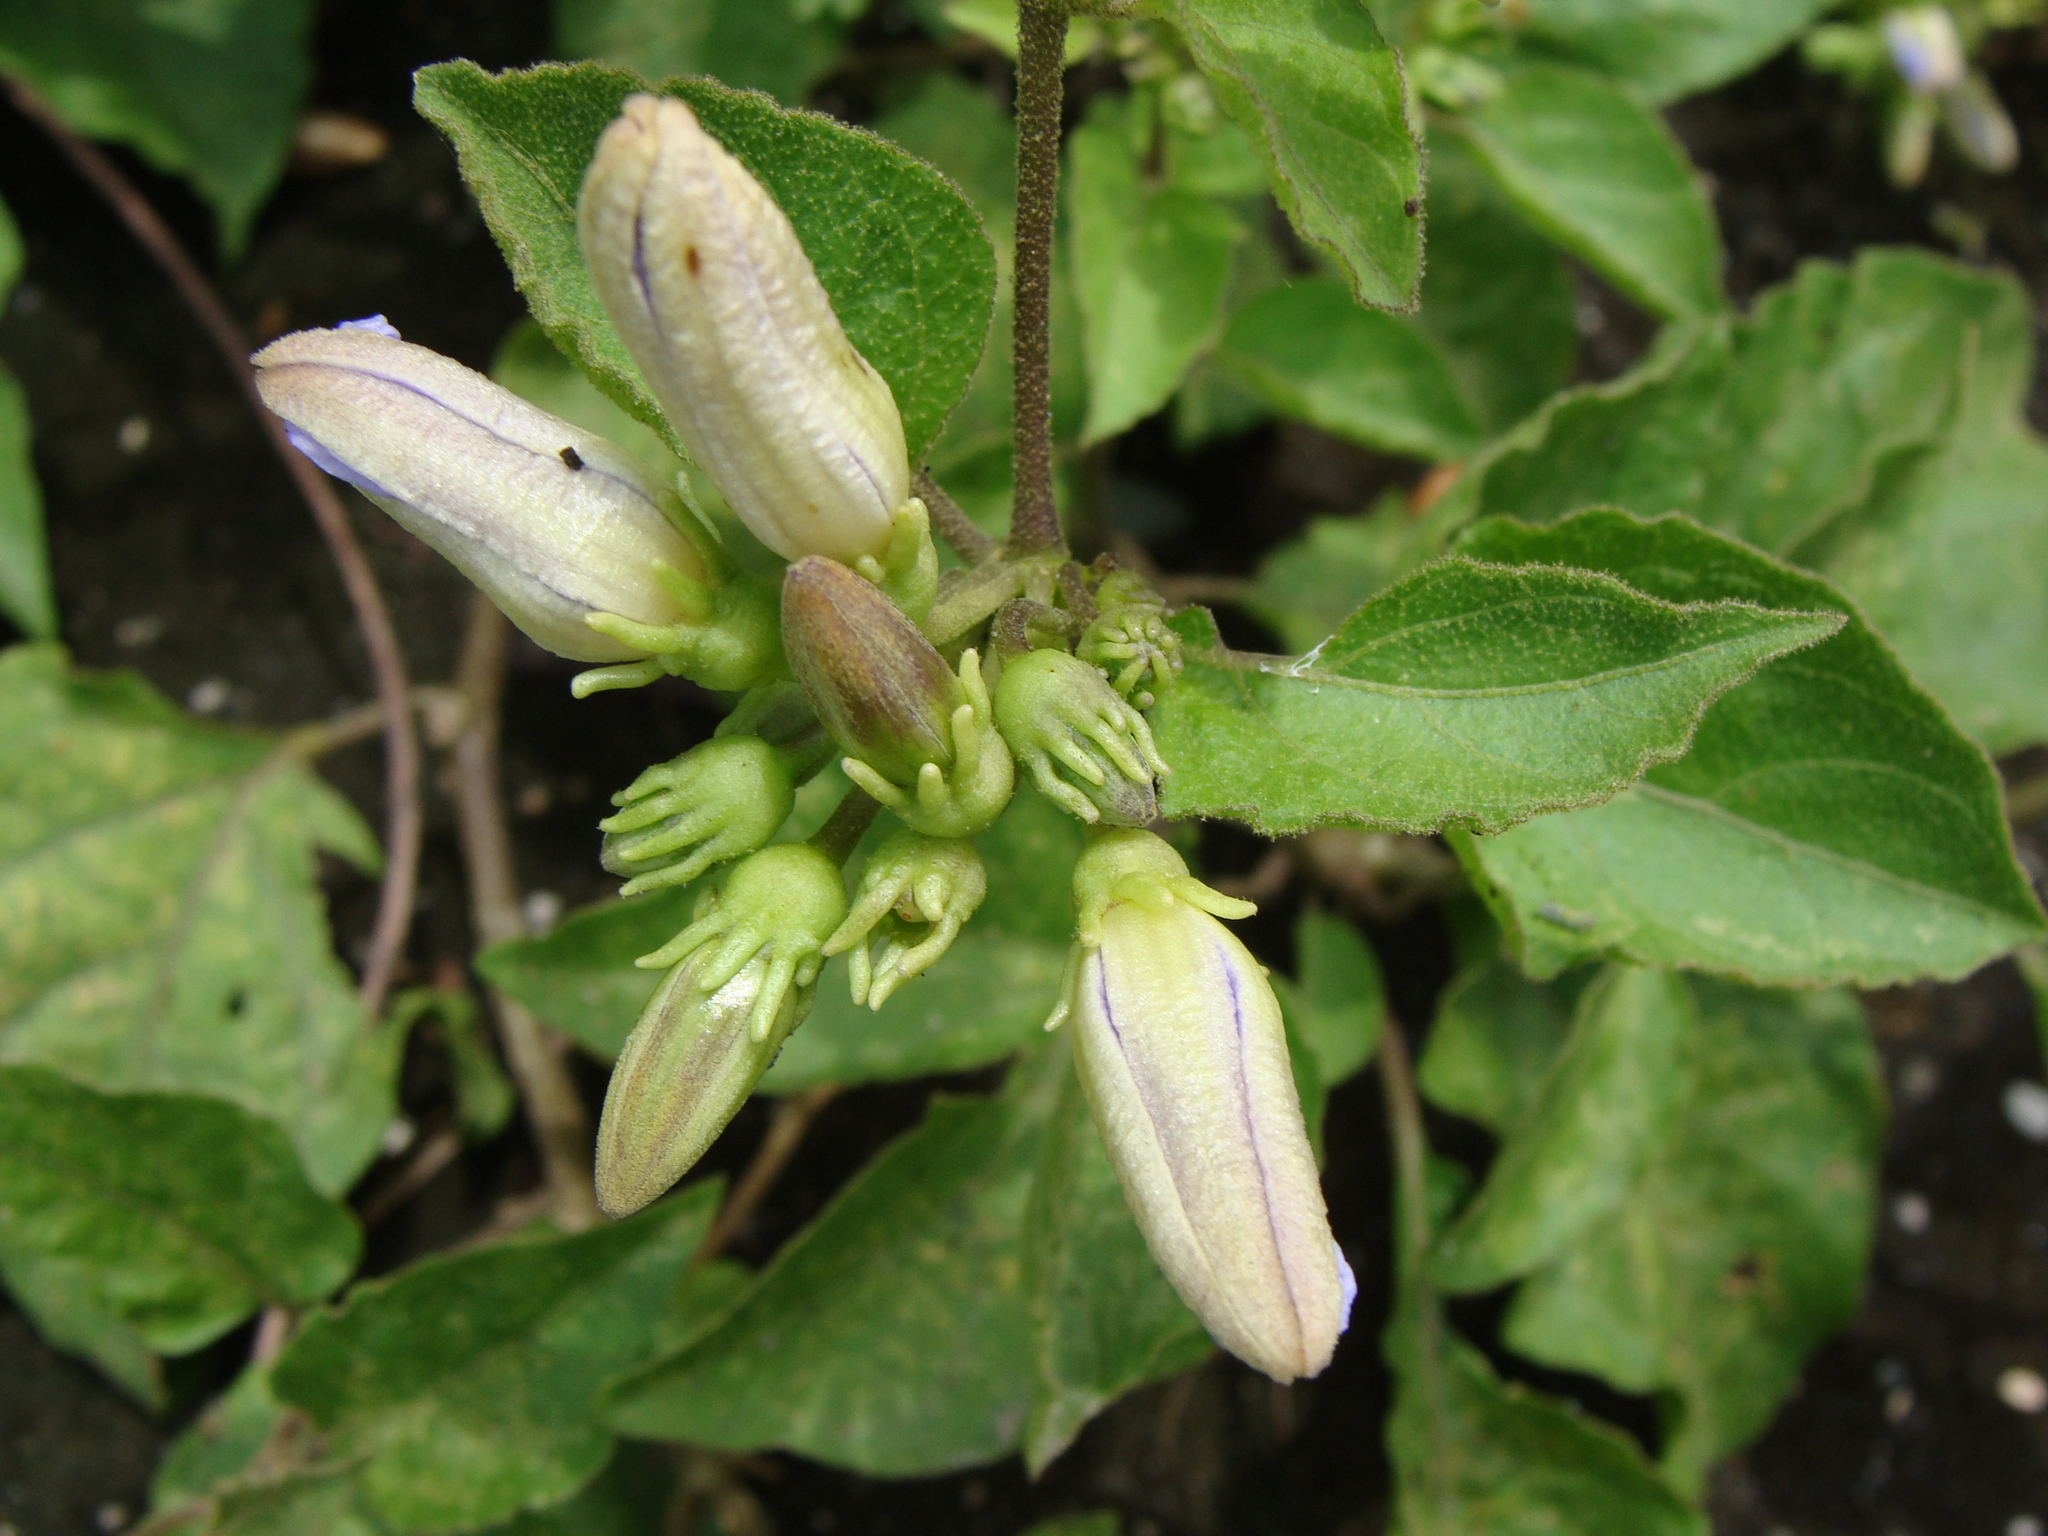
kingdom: Plantae
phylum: Tracheophyta
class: Magnoliopsida
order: Solanales
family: Solanaceae
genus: Lycianthes
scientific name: Lycianthes scandens
